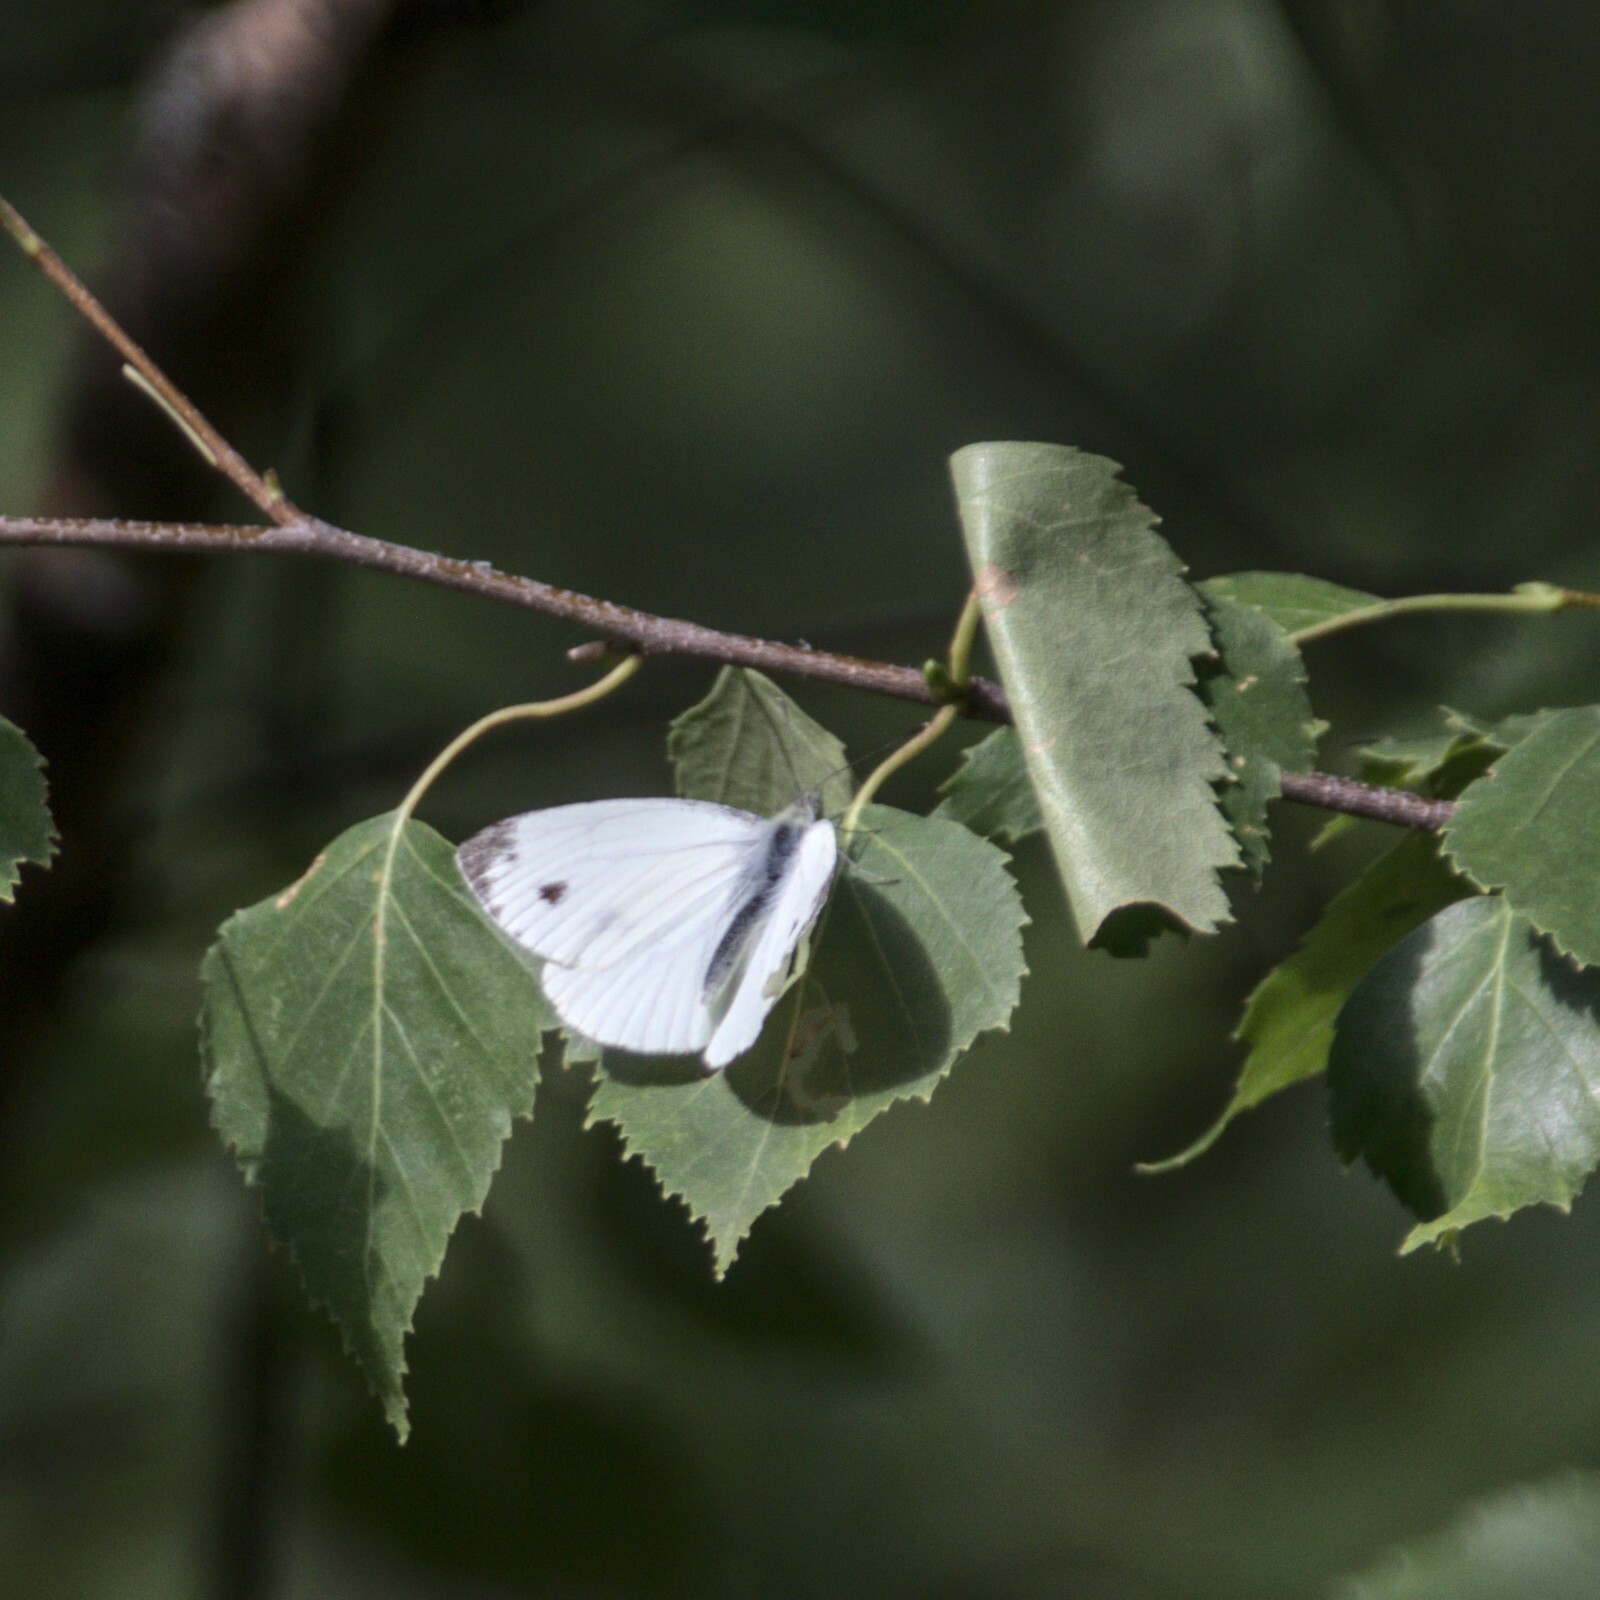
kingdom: Animalia
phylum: Arthropoda
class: Insecta
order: Lepidoptera
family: Pieridae
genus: Pieris
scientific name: Pieris napi
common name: Green-veined white
